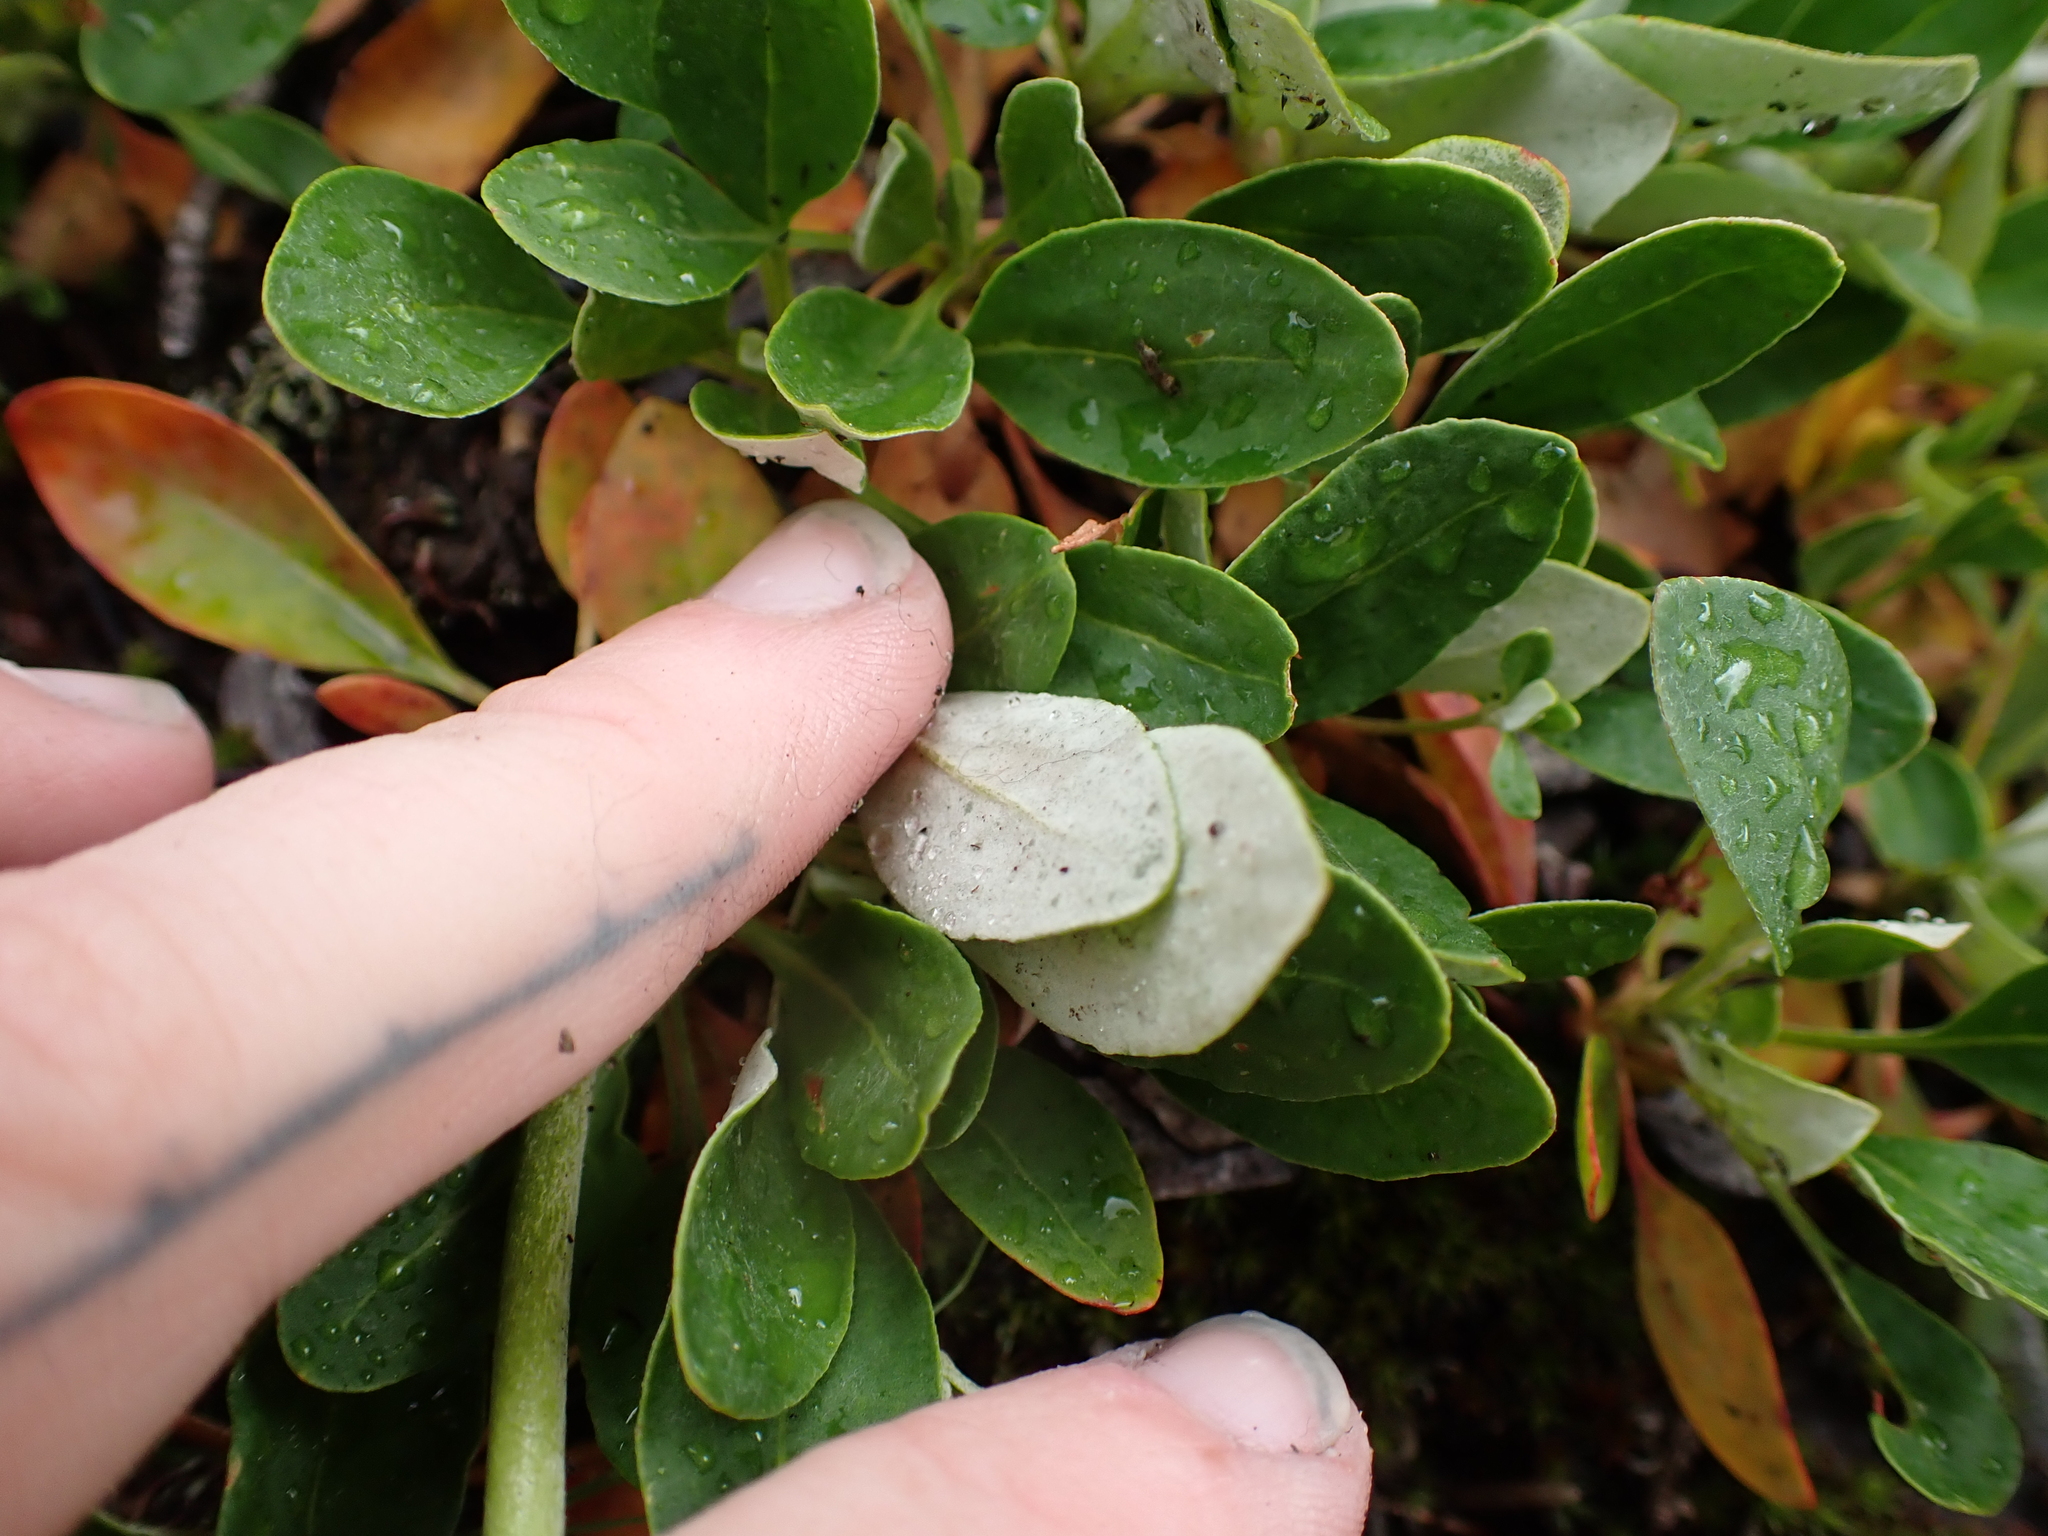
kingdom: Plantae
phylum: Tracheophyta
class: Magnoliopsida
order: Ericales
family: Ericaceae
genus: Arctostaphylos
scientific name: Arctostaphylos uva-ursi
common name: Bearberry
